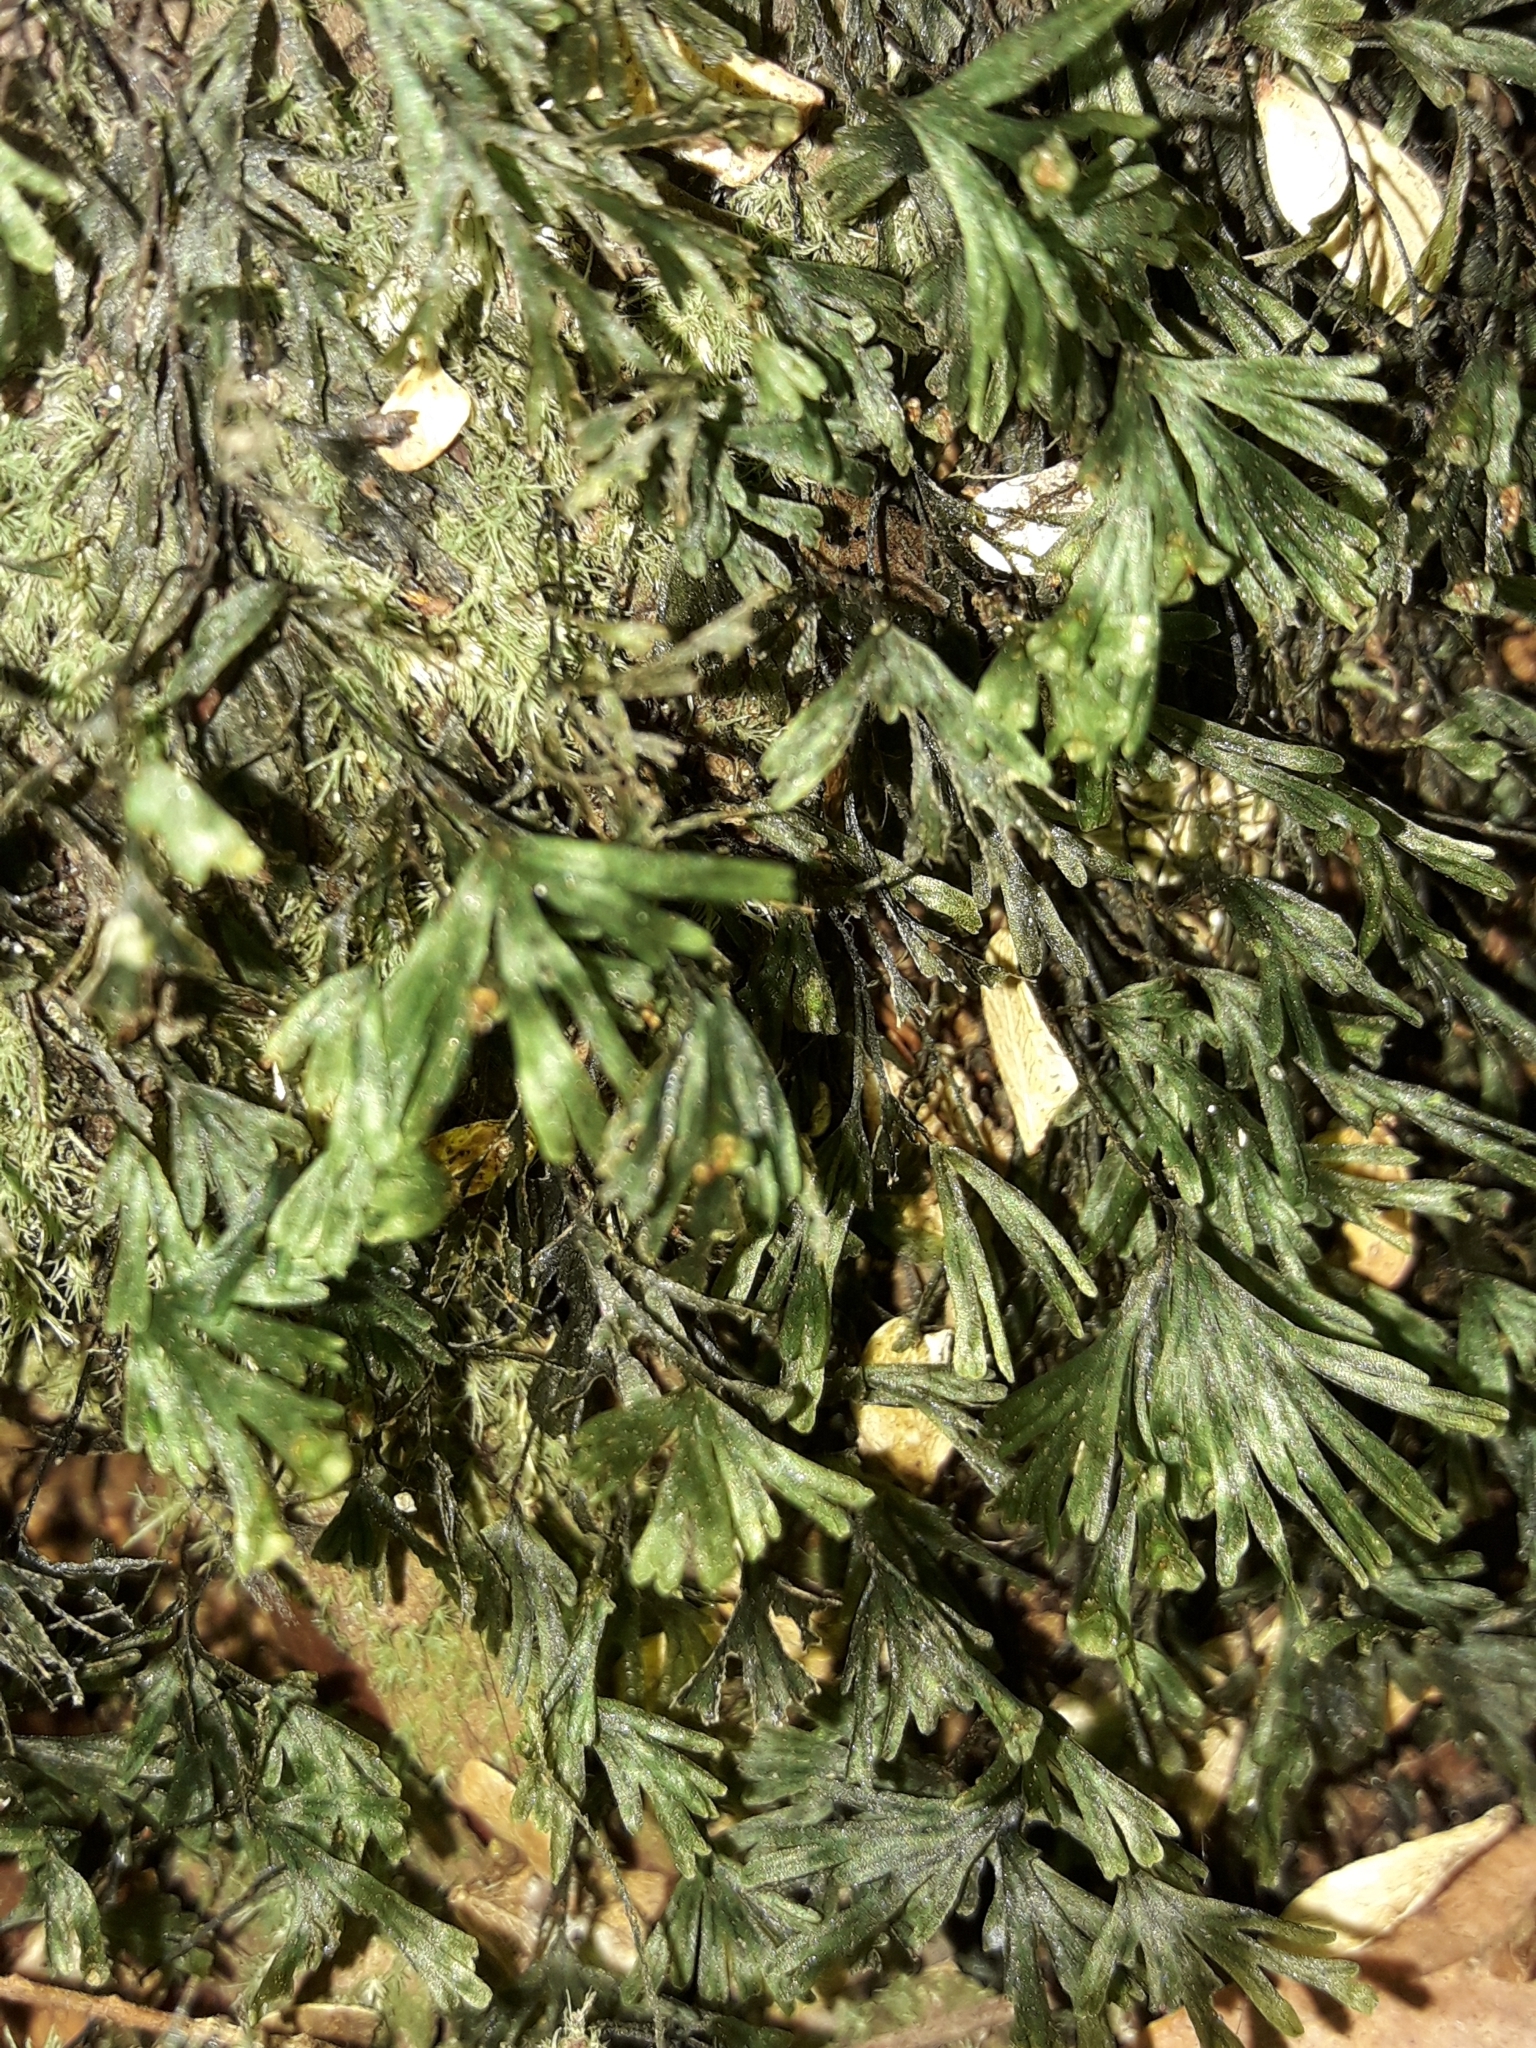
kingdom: Plantae
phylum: Tracheophyta
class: Polypodiopsida
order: Hymenophyllales
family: Hymenophyllaceae
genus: Crepidomanes
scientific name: Crepidomanes parvulum
